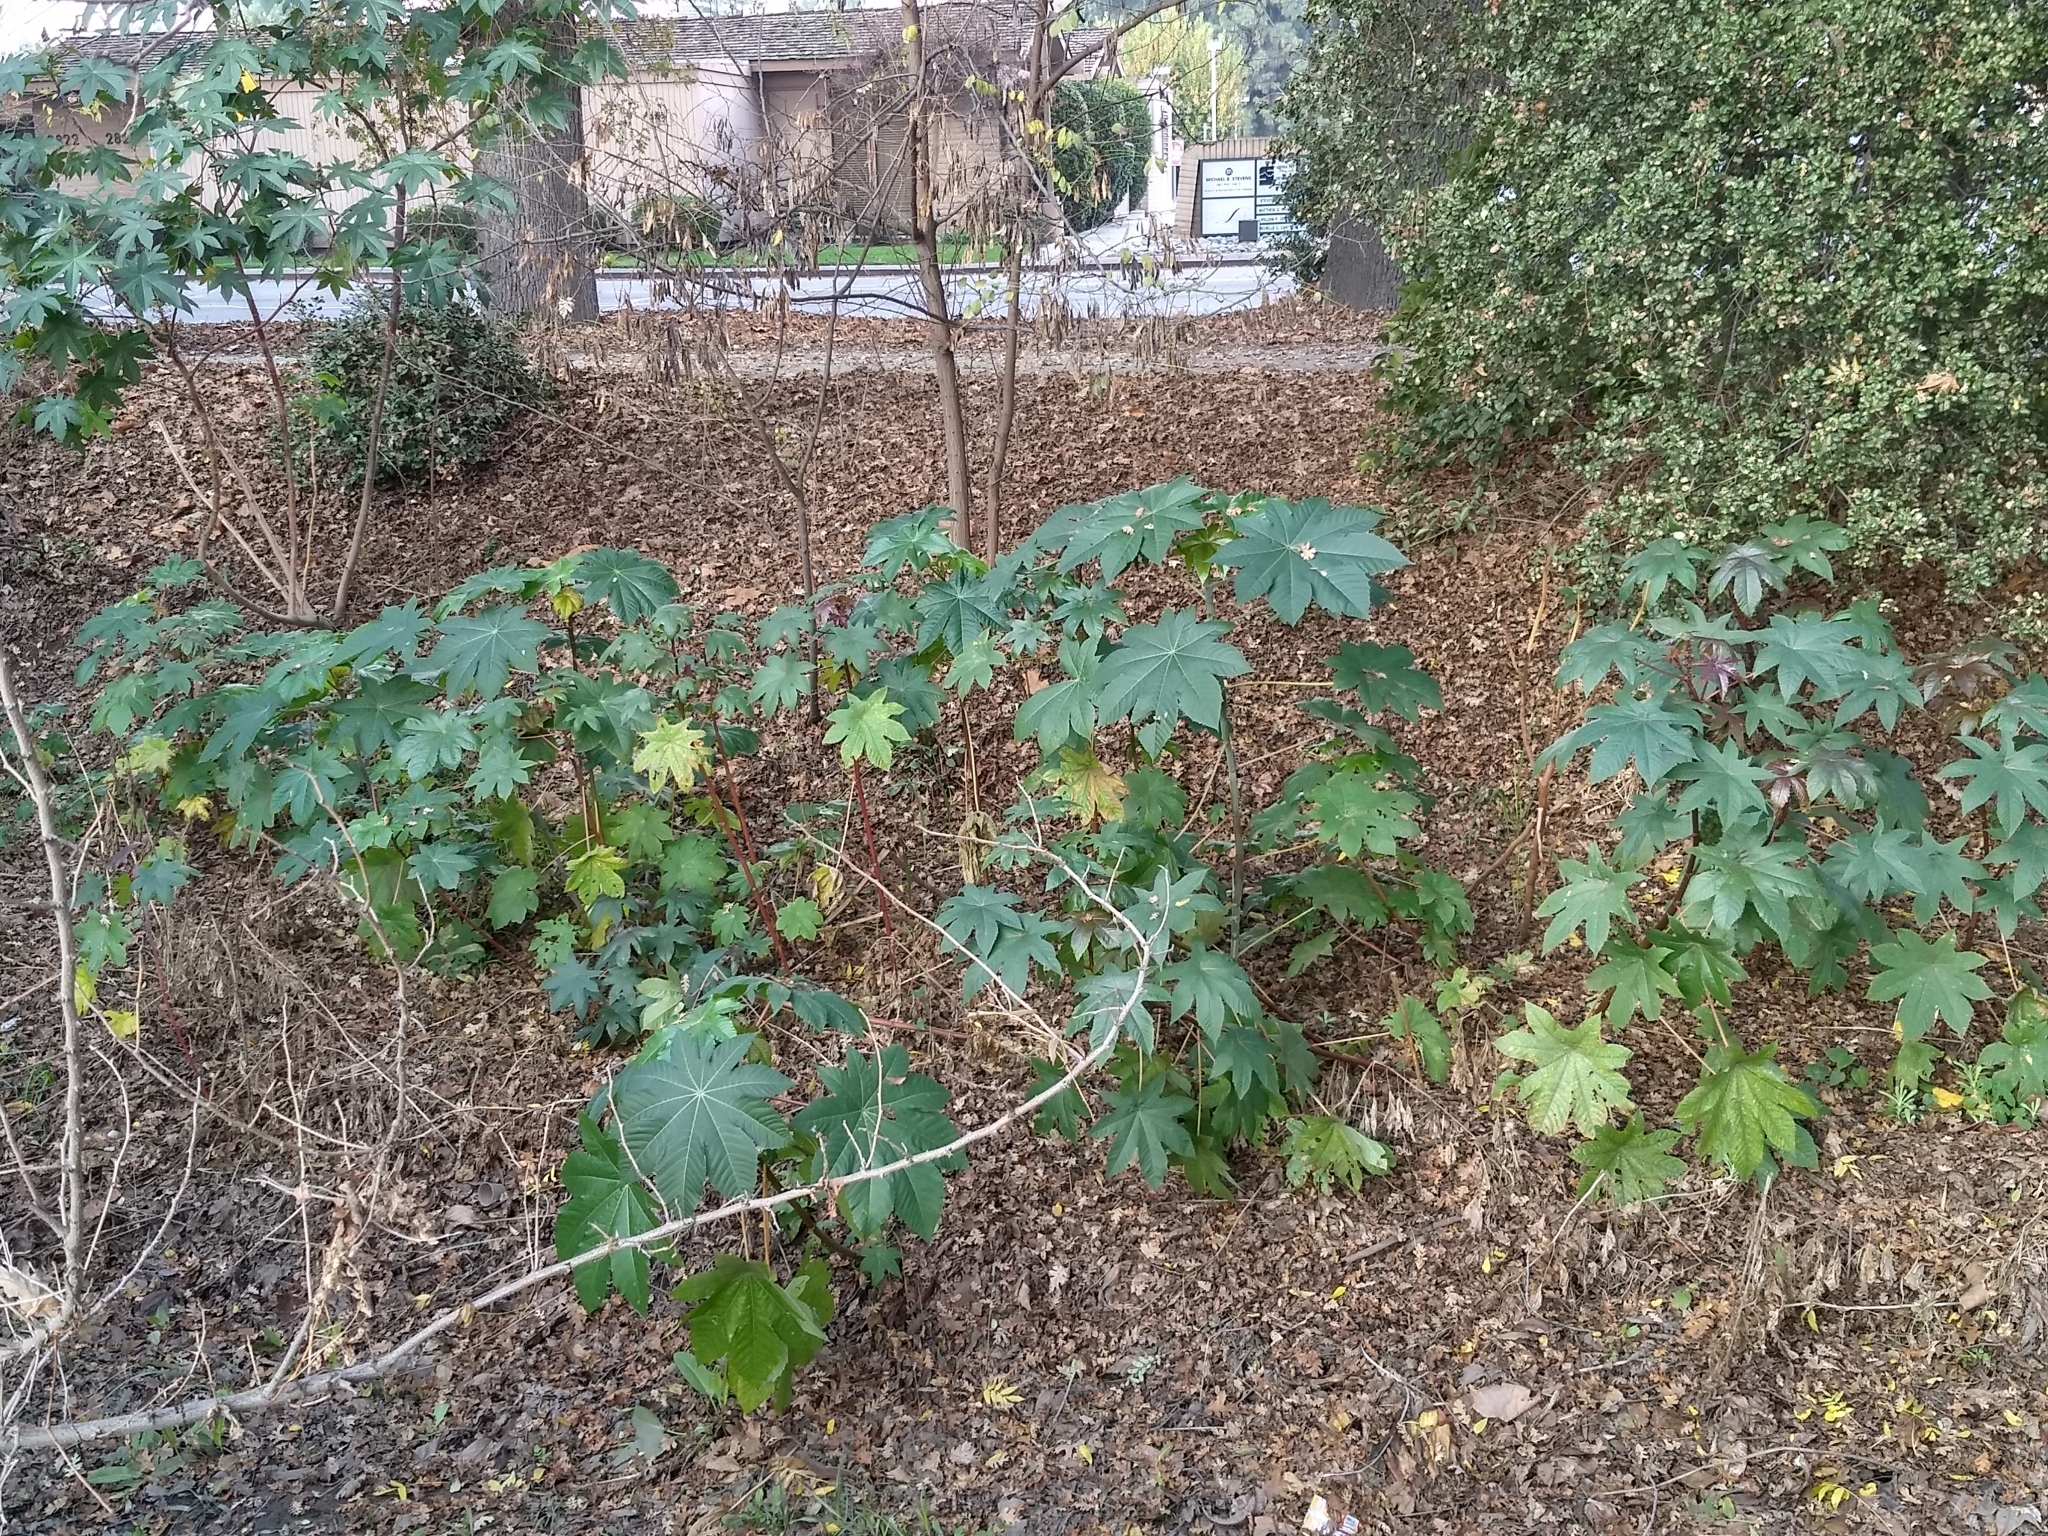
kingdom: Plantae
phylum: Tracheophyta
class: Magnoliopsida
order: Malpighiales
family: Euphorbiaceae
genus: Ricinus
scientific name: Ricinus communis
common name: Castor-oil-plant
